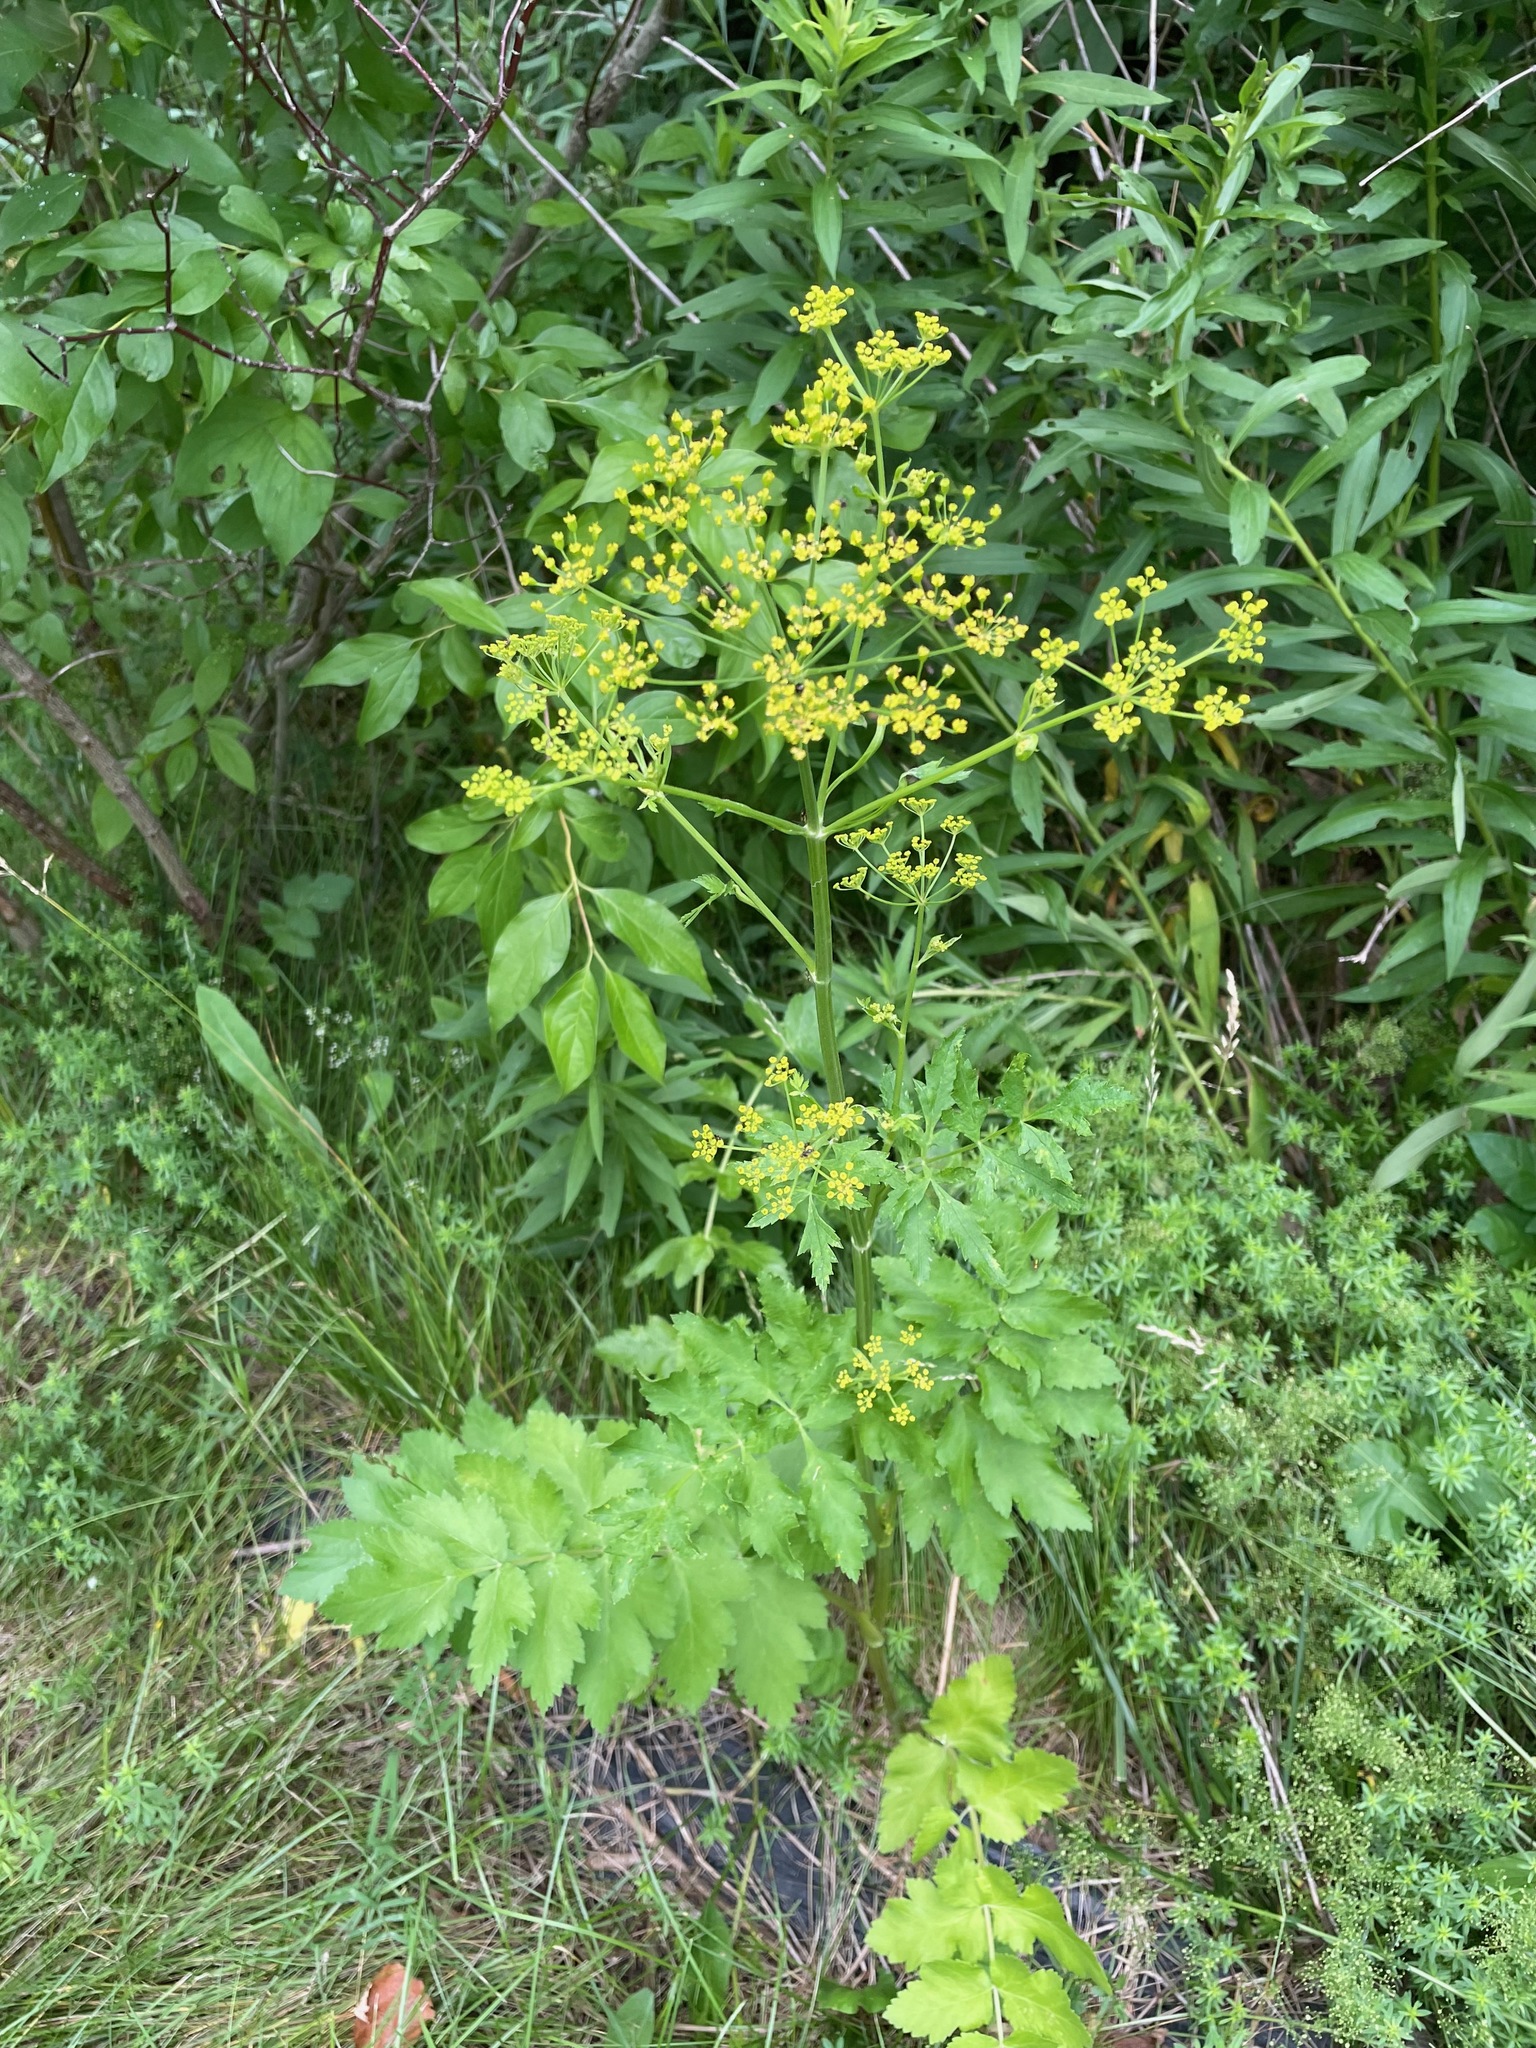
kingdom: Plantae
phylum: Tracheophyta
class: Magnoliopsida
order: Apiales
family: Apiaceae
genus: Pastinaca
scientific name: Pastinaca sativa
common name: Wild parsnip
